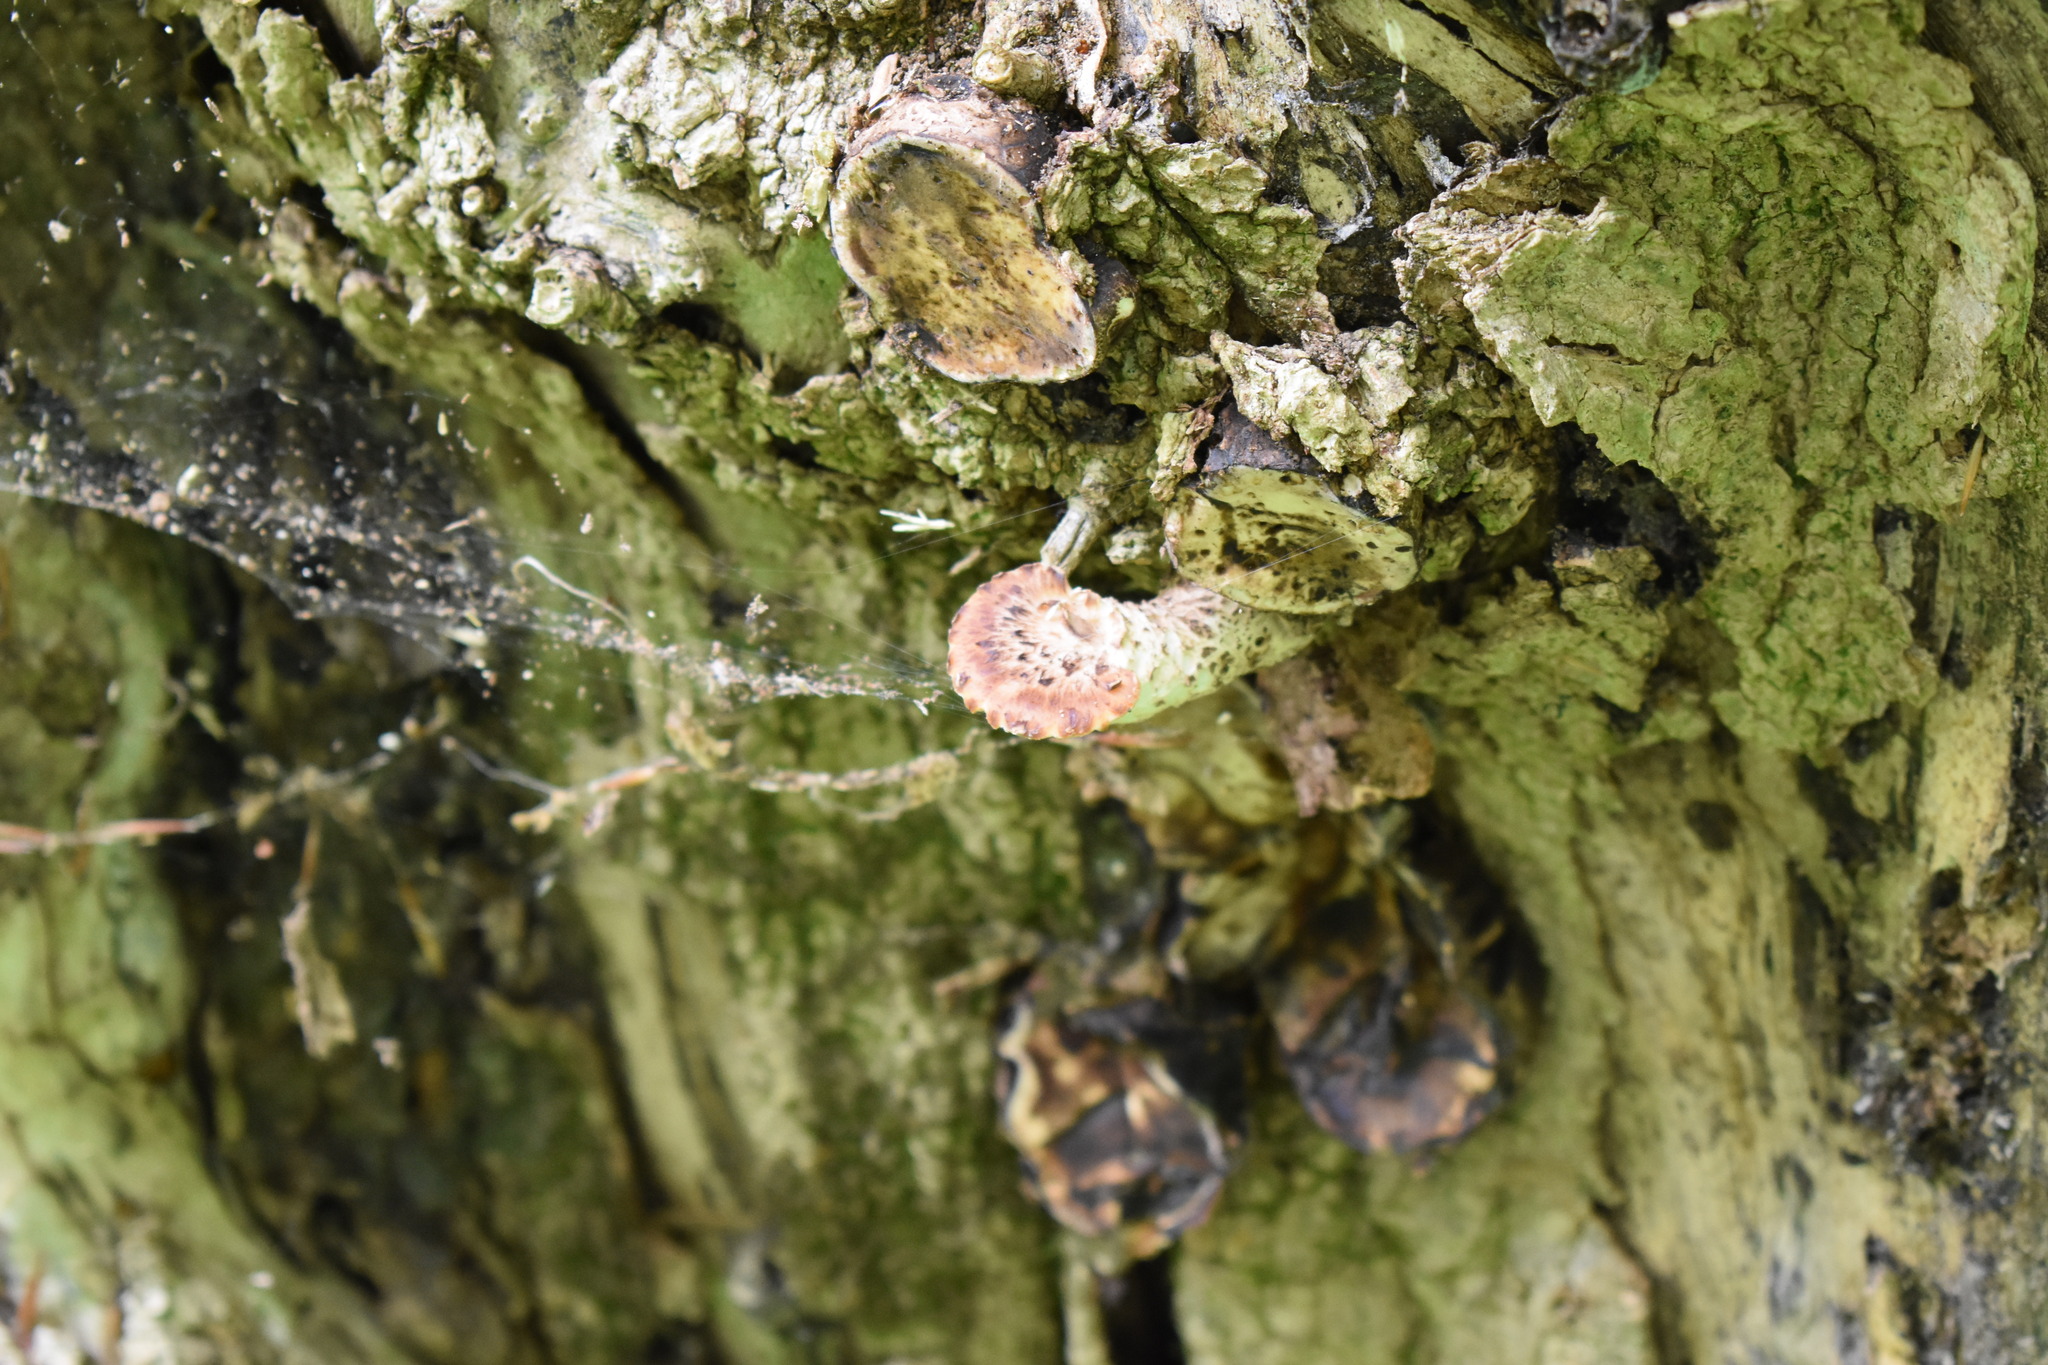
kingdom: Fungi
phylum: Basidiomycota
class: Agaricomycetes
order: Polyporales
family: Polyporaceae
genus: Cerioporus
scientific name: Cerioporus squamosus
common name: Dryad's saddle
